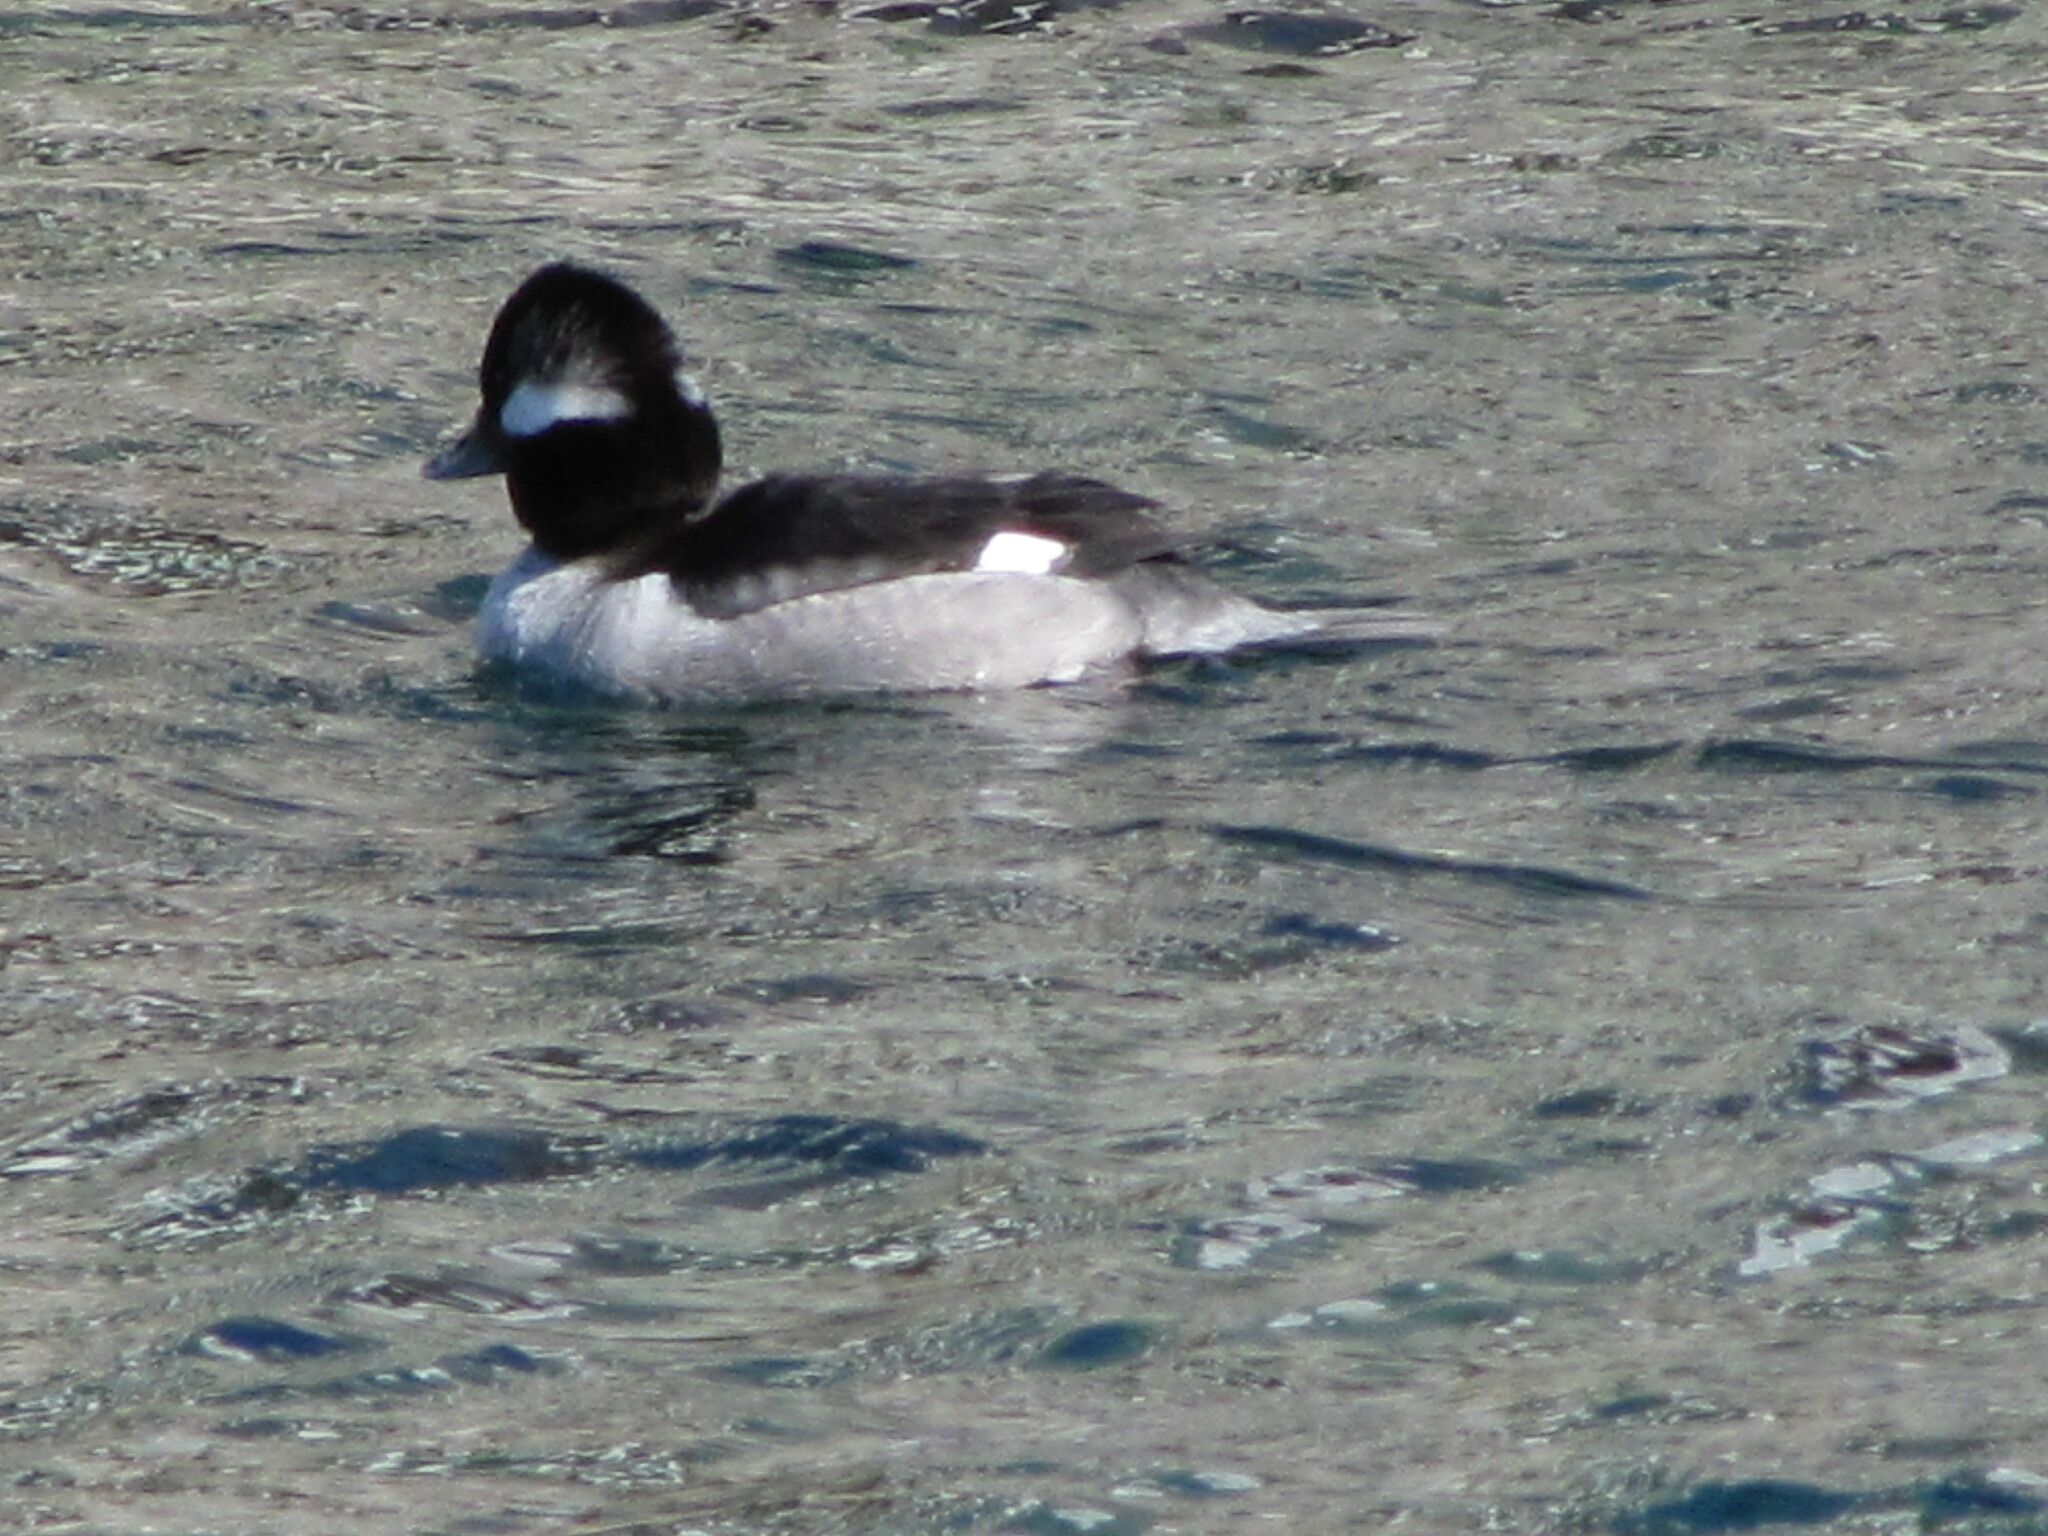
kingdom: Animalia
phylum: Chordata
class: Aves
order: Anseriformes
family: Anatidae
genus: Bucephala
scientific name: Bucephala albeola
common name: Bufflehead
